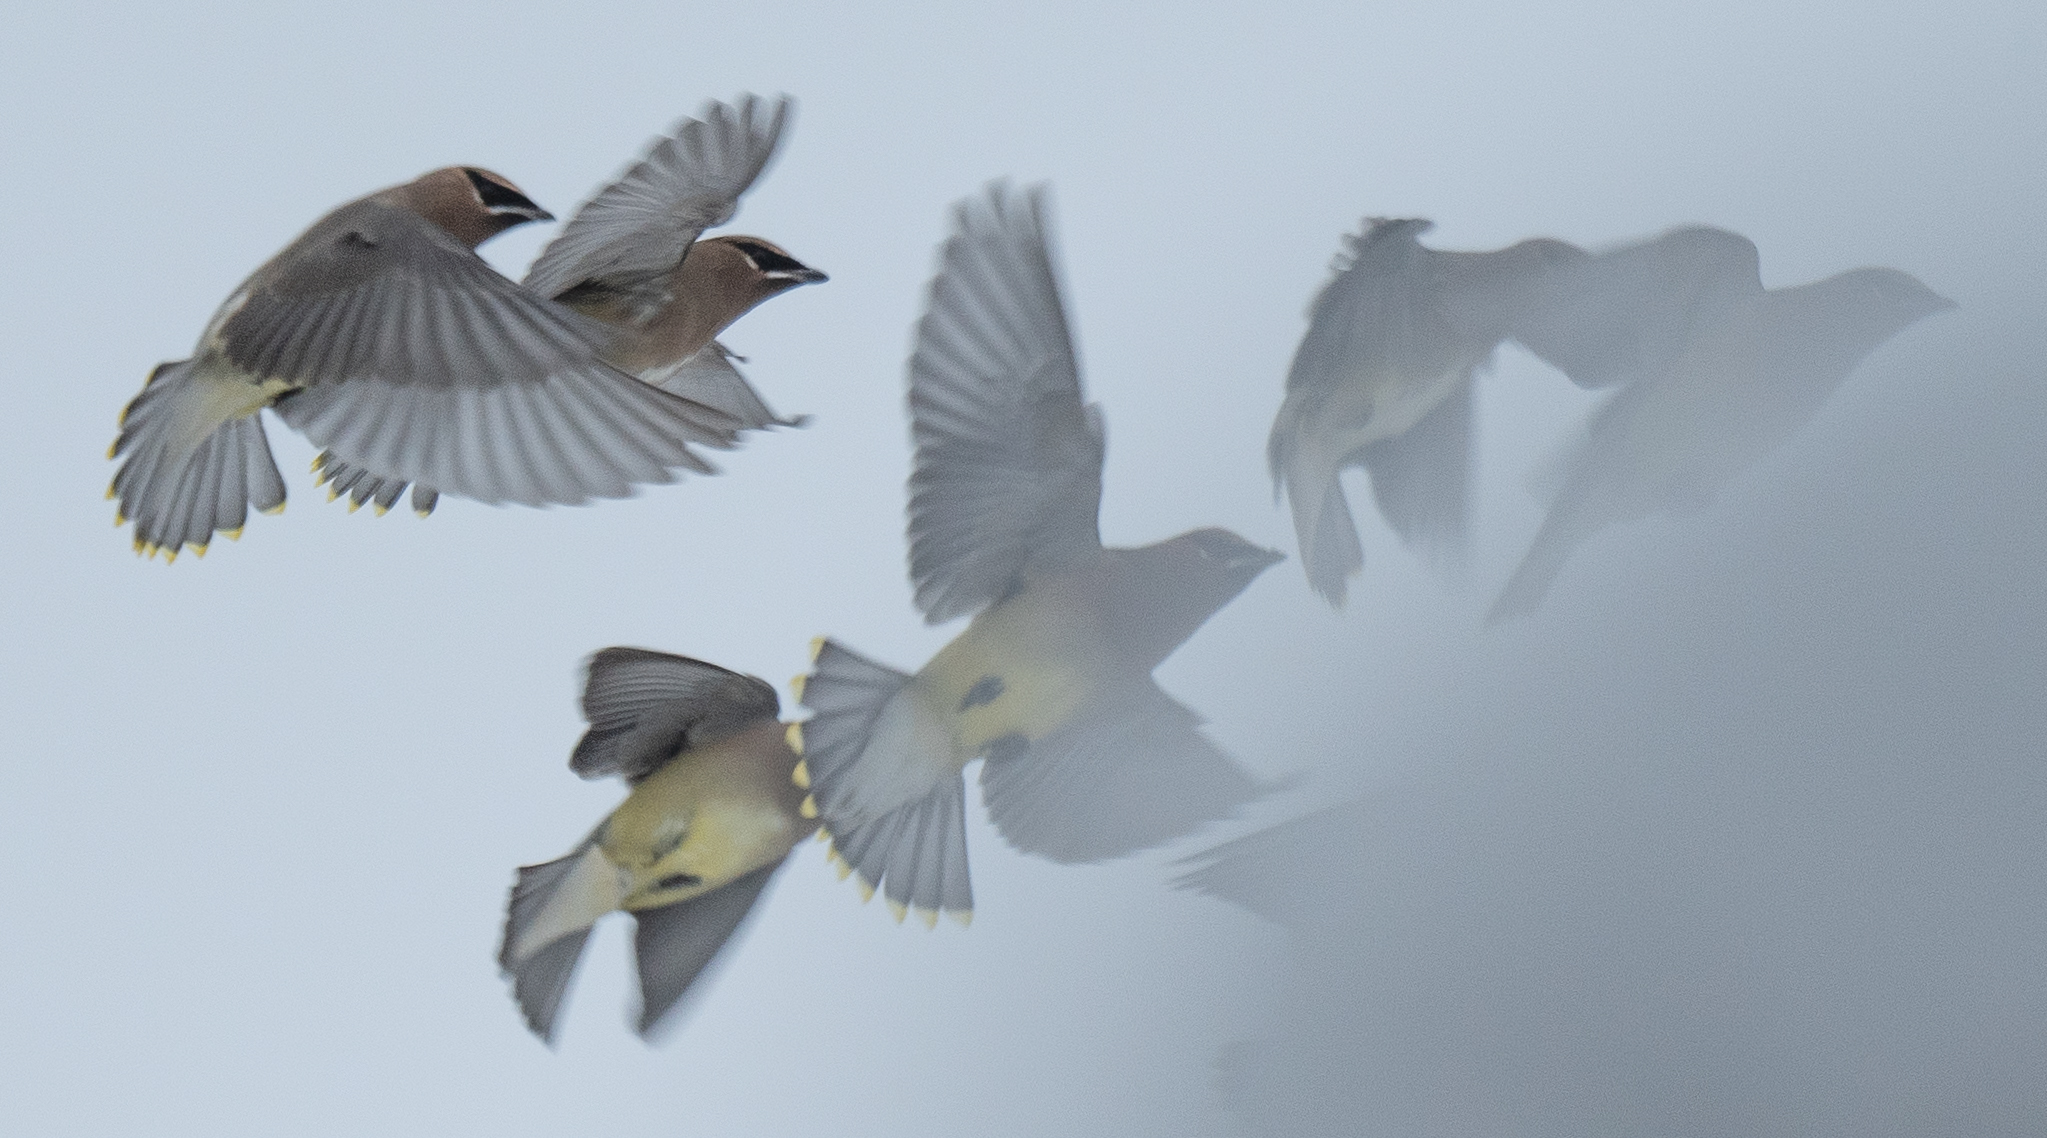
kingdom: Animalia
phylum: Chordata
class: Aves
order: Passeriformes
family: Bombycillidae
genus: Bombycilla
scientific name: Bombycilla cedrorum
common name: Cedar waxwing
